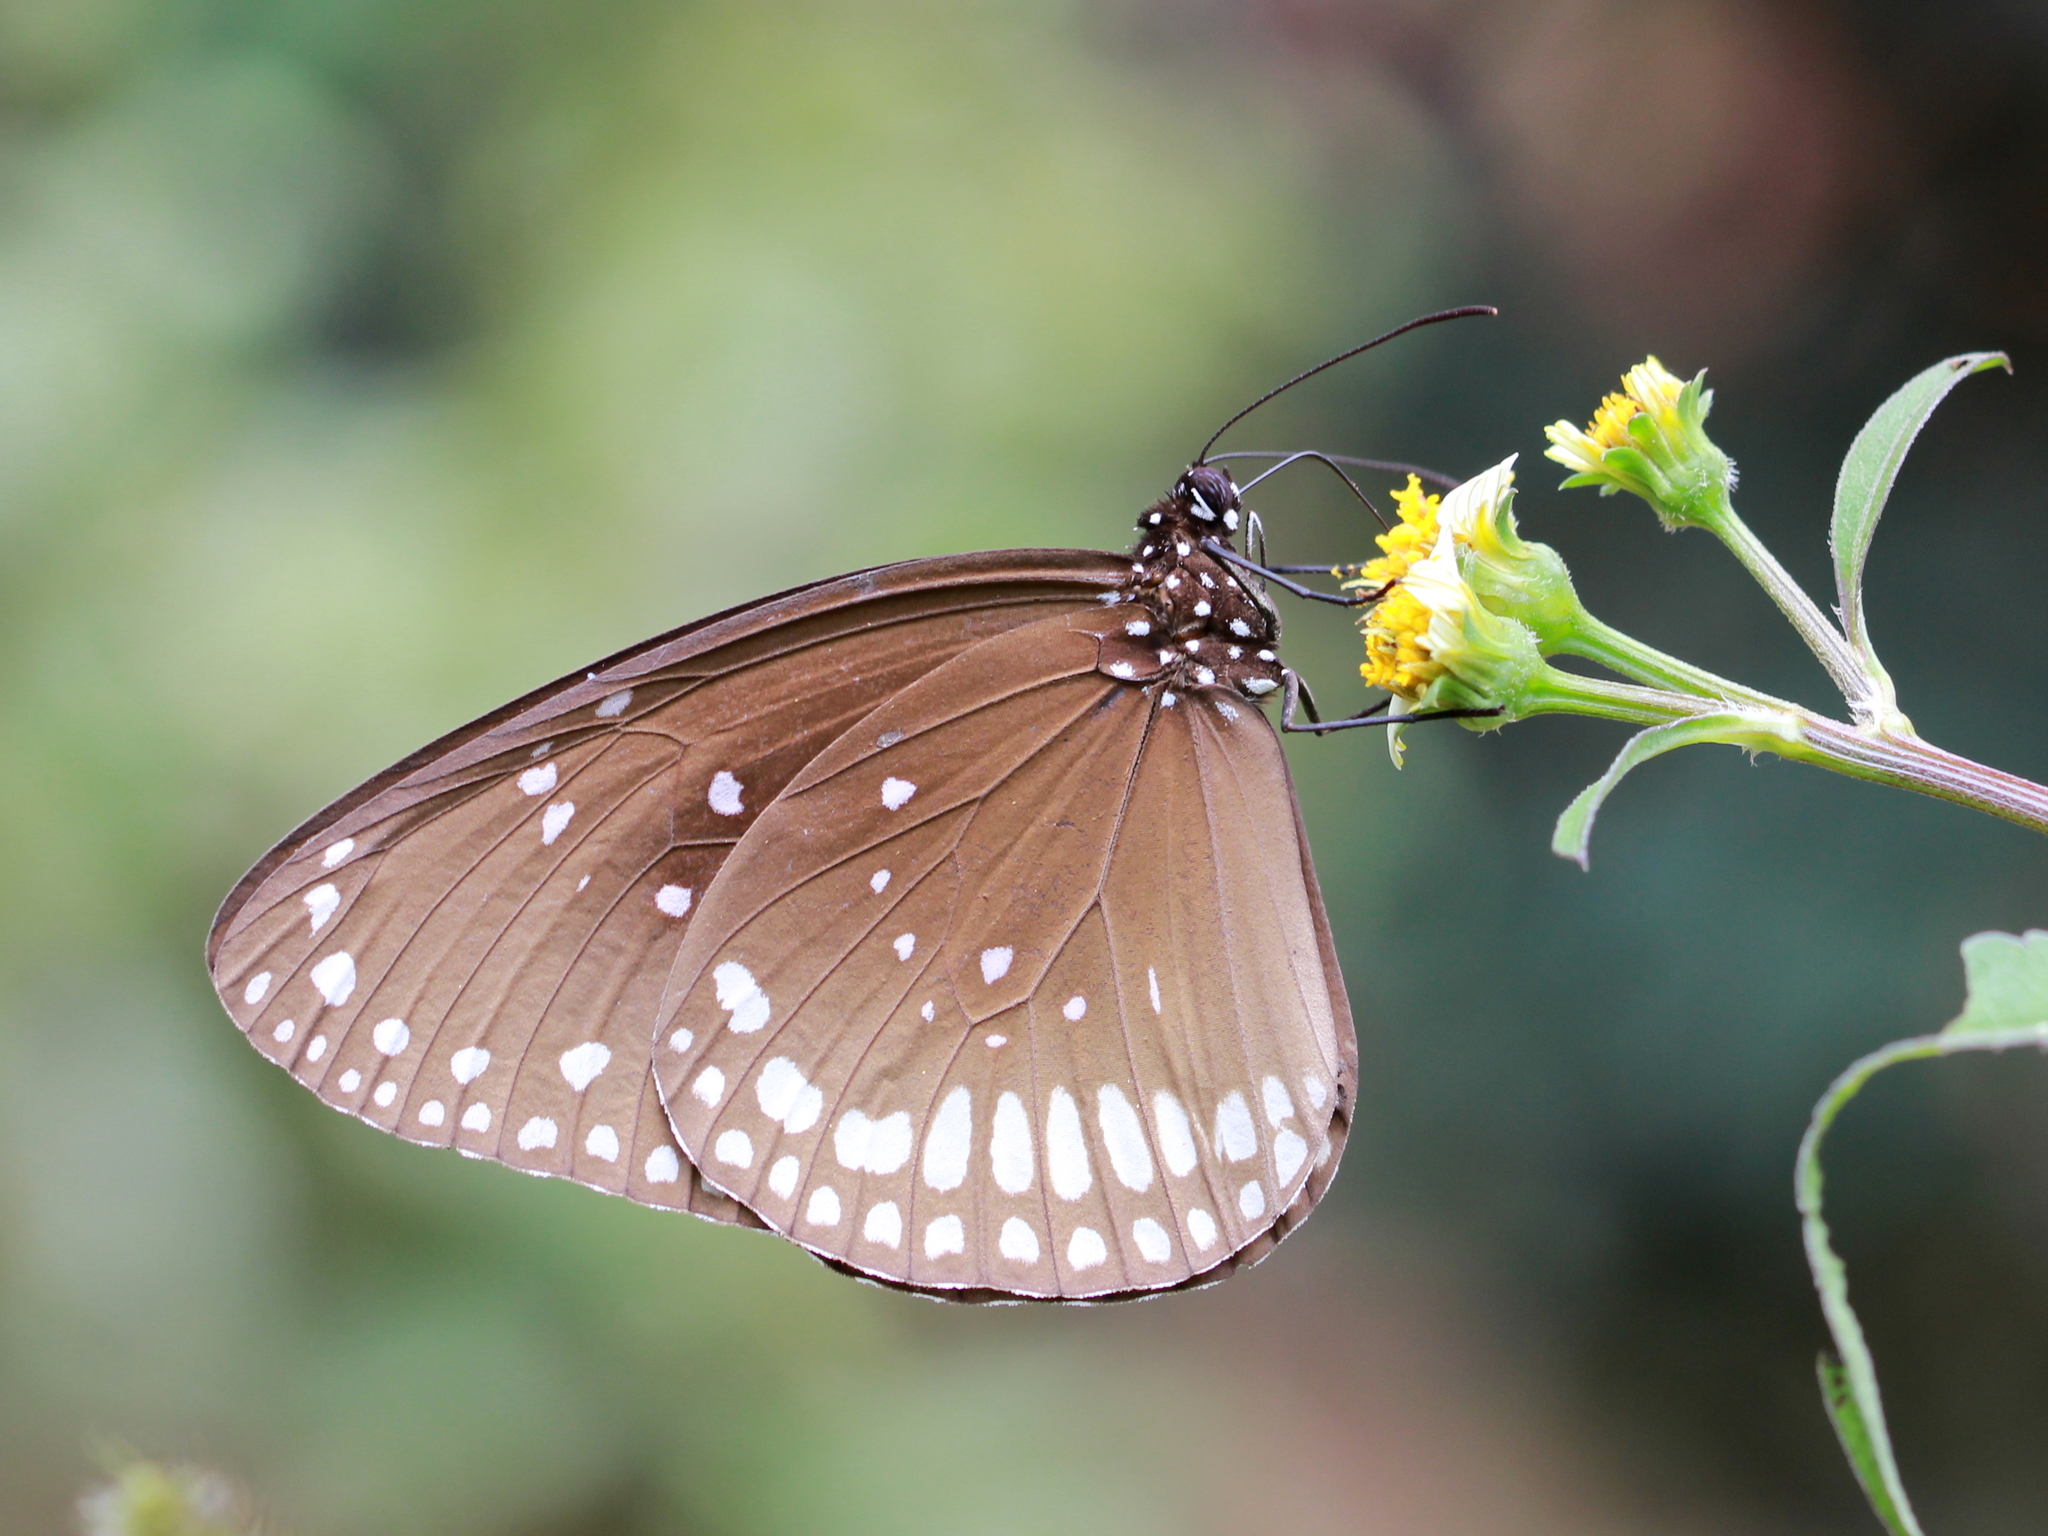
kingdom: Animalia
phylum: Arthropoda
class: Insecta
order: Lepidoptera
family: Nymphalidae
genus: Euploea
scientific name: Euploea sylvester
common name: Double-branded crow butterfly
